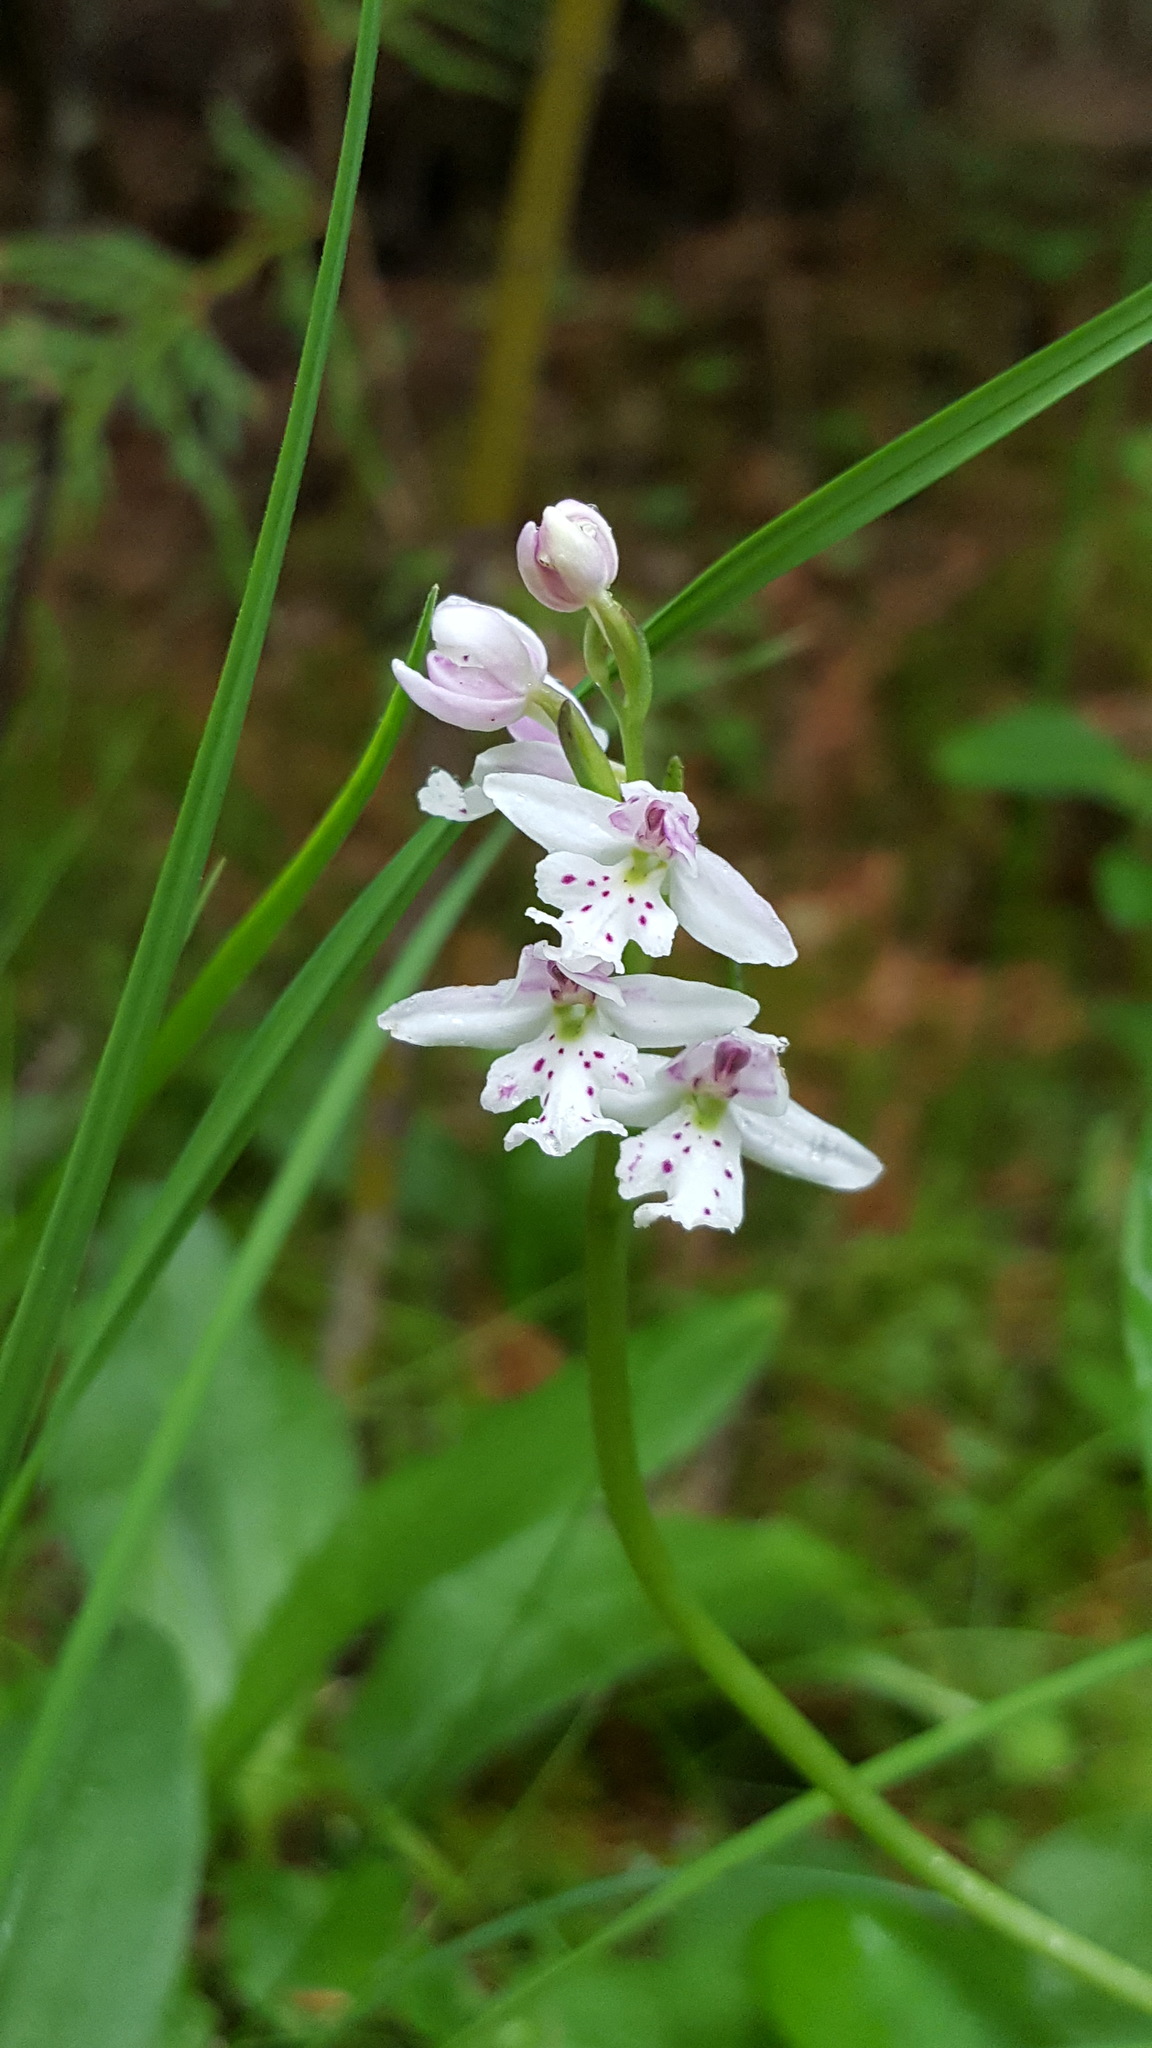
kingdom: Plantae
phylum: Tracheophyta
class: Liliopsida
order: Asparagales
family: Orchidaceae
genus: Galearis
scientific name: Galearis rotundifolia
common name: One-leaved orchis
